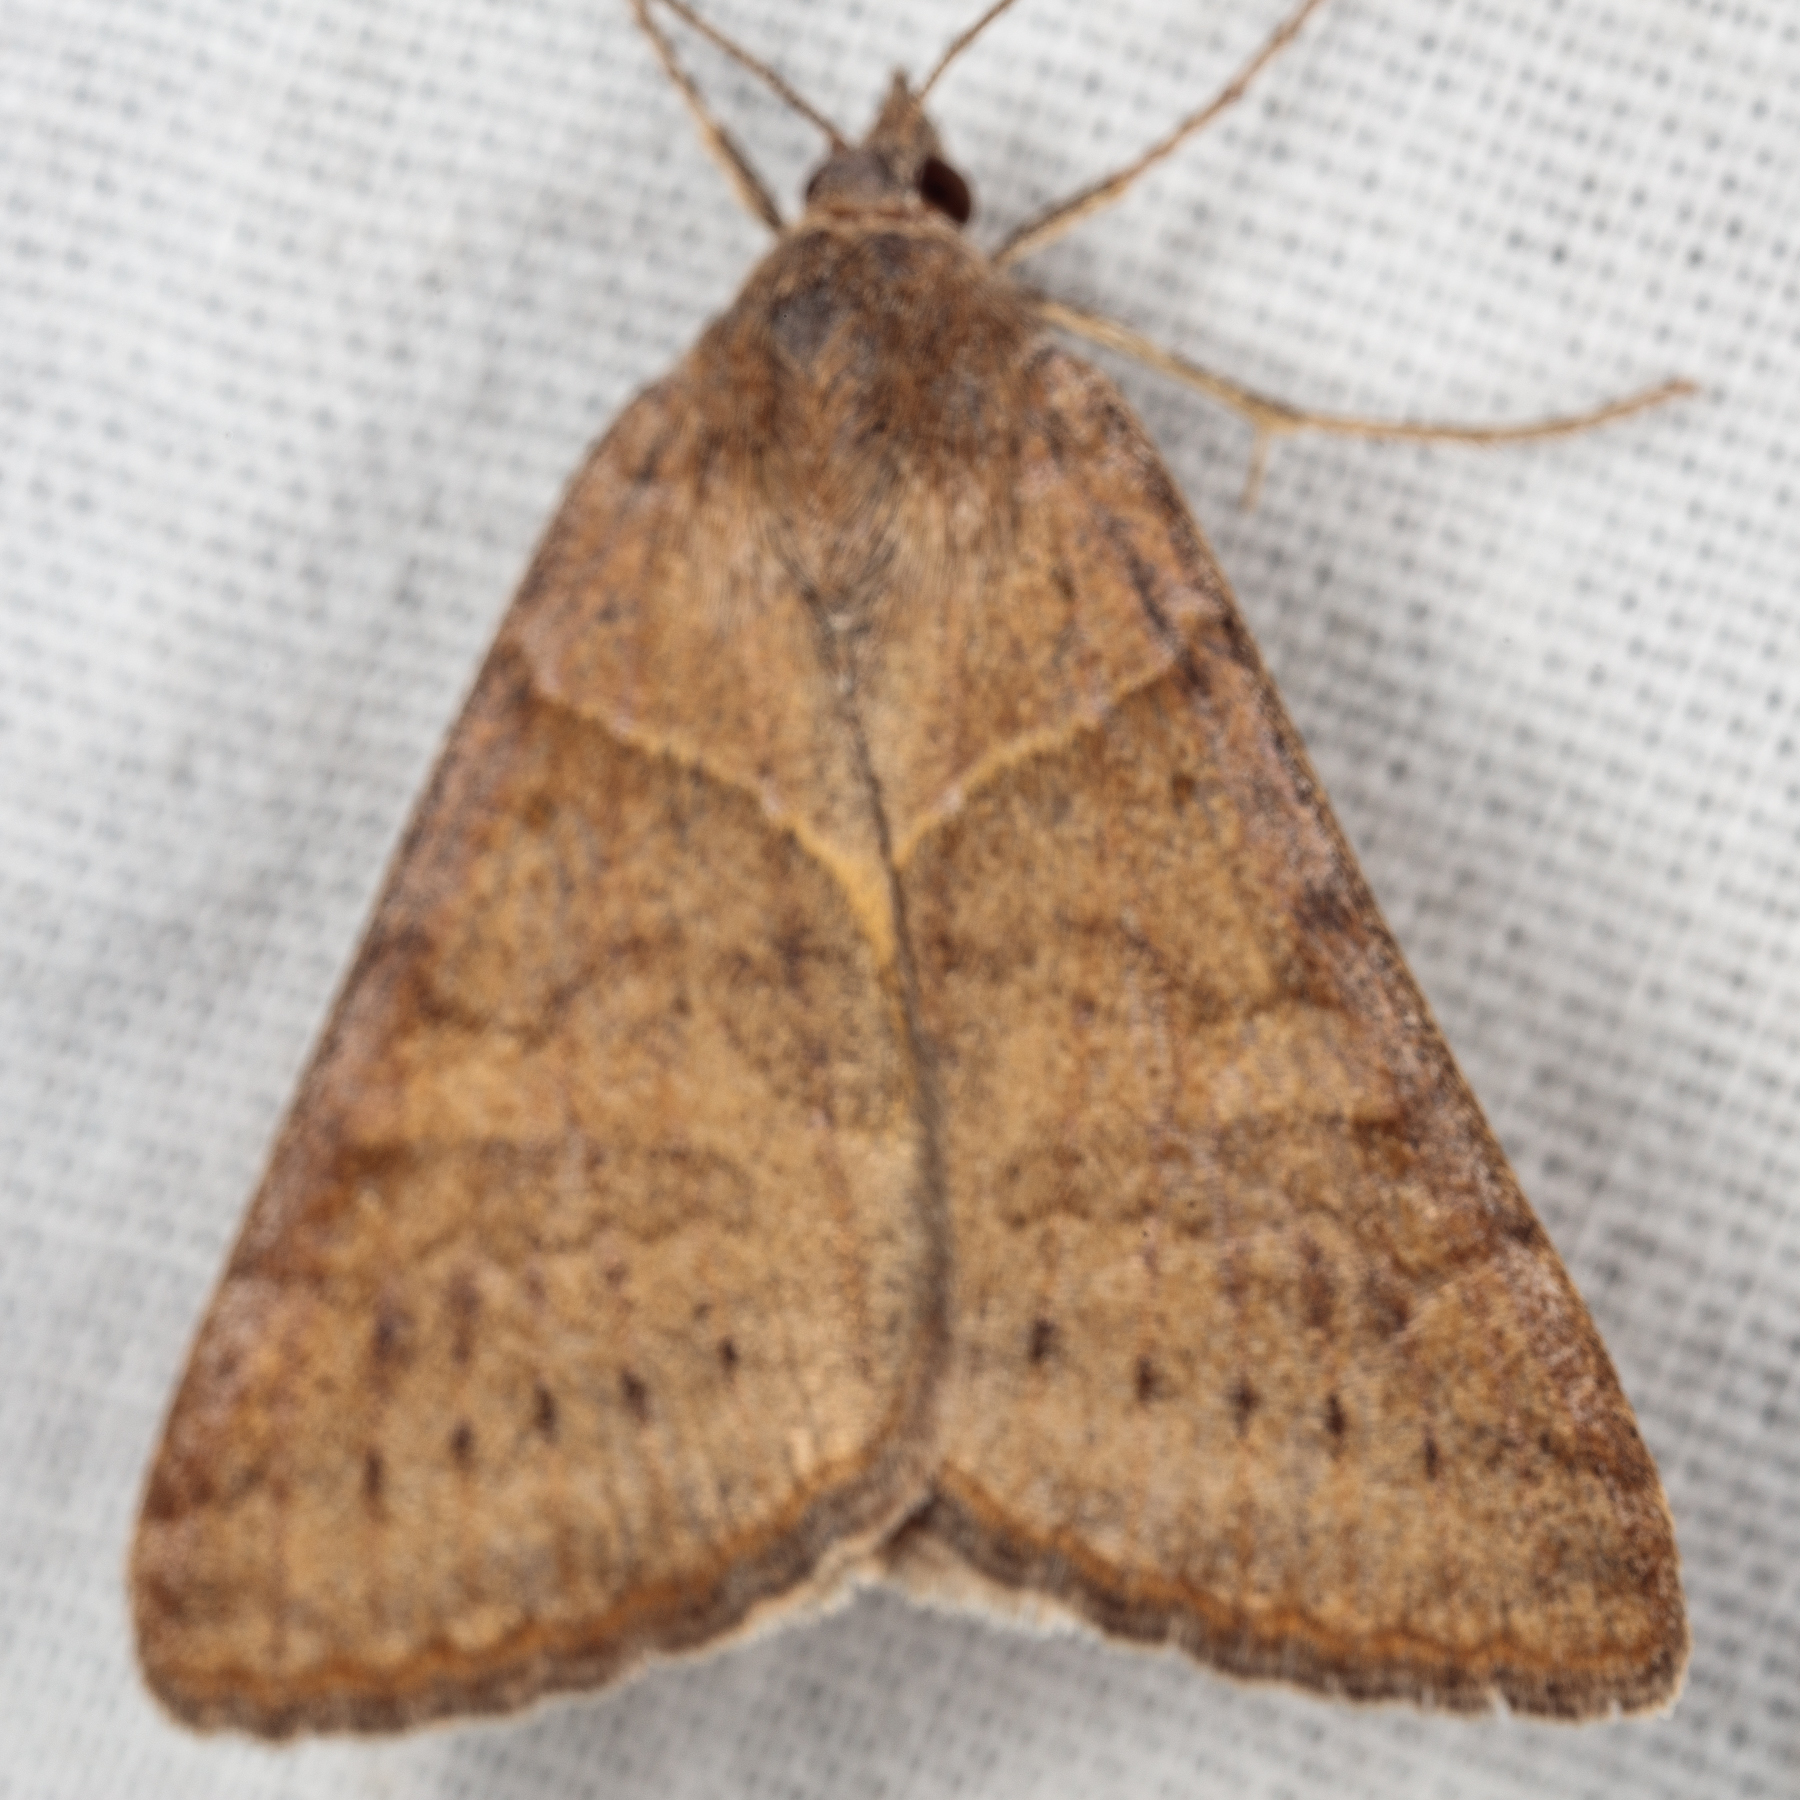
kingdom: Animalia
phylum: Arthropoda
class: Insecta
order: Lepidoptera
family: Erebidae
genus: Caenurgina
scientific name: Caenurgina erechtea
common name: Forage looper moth
